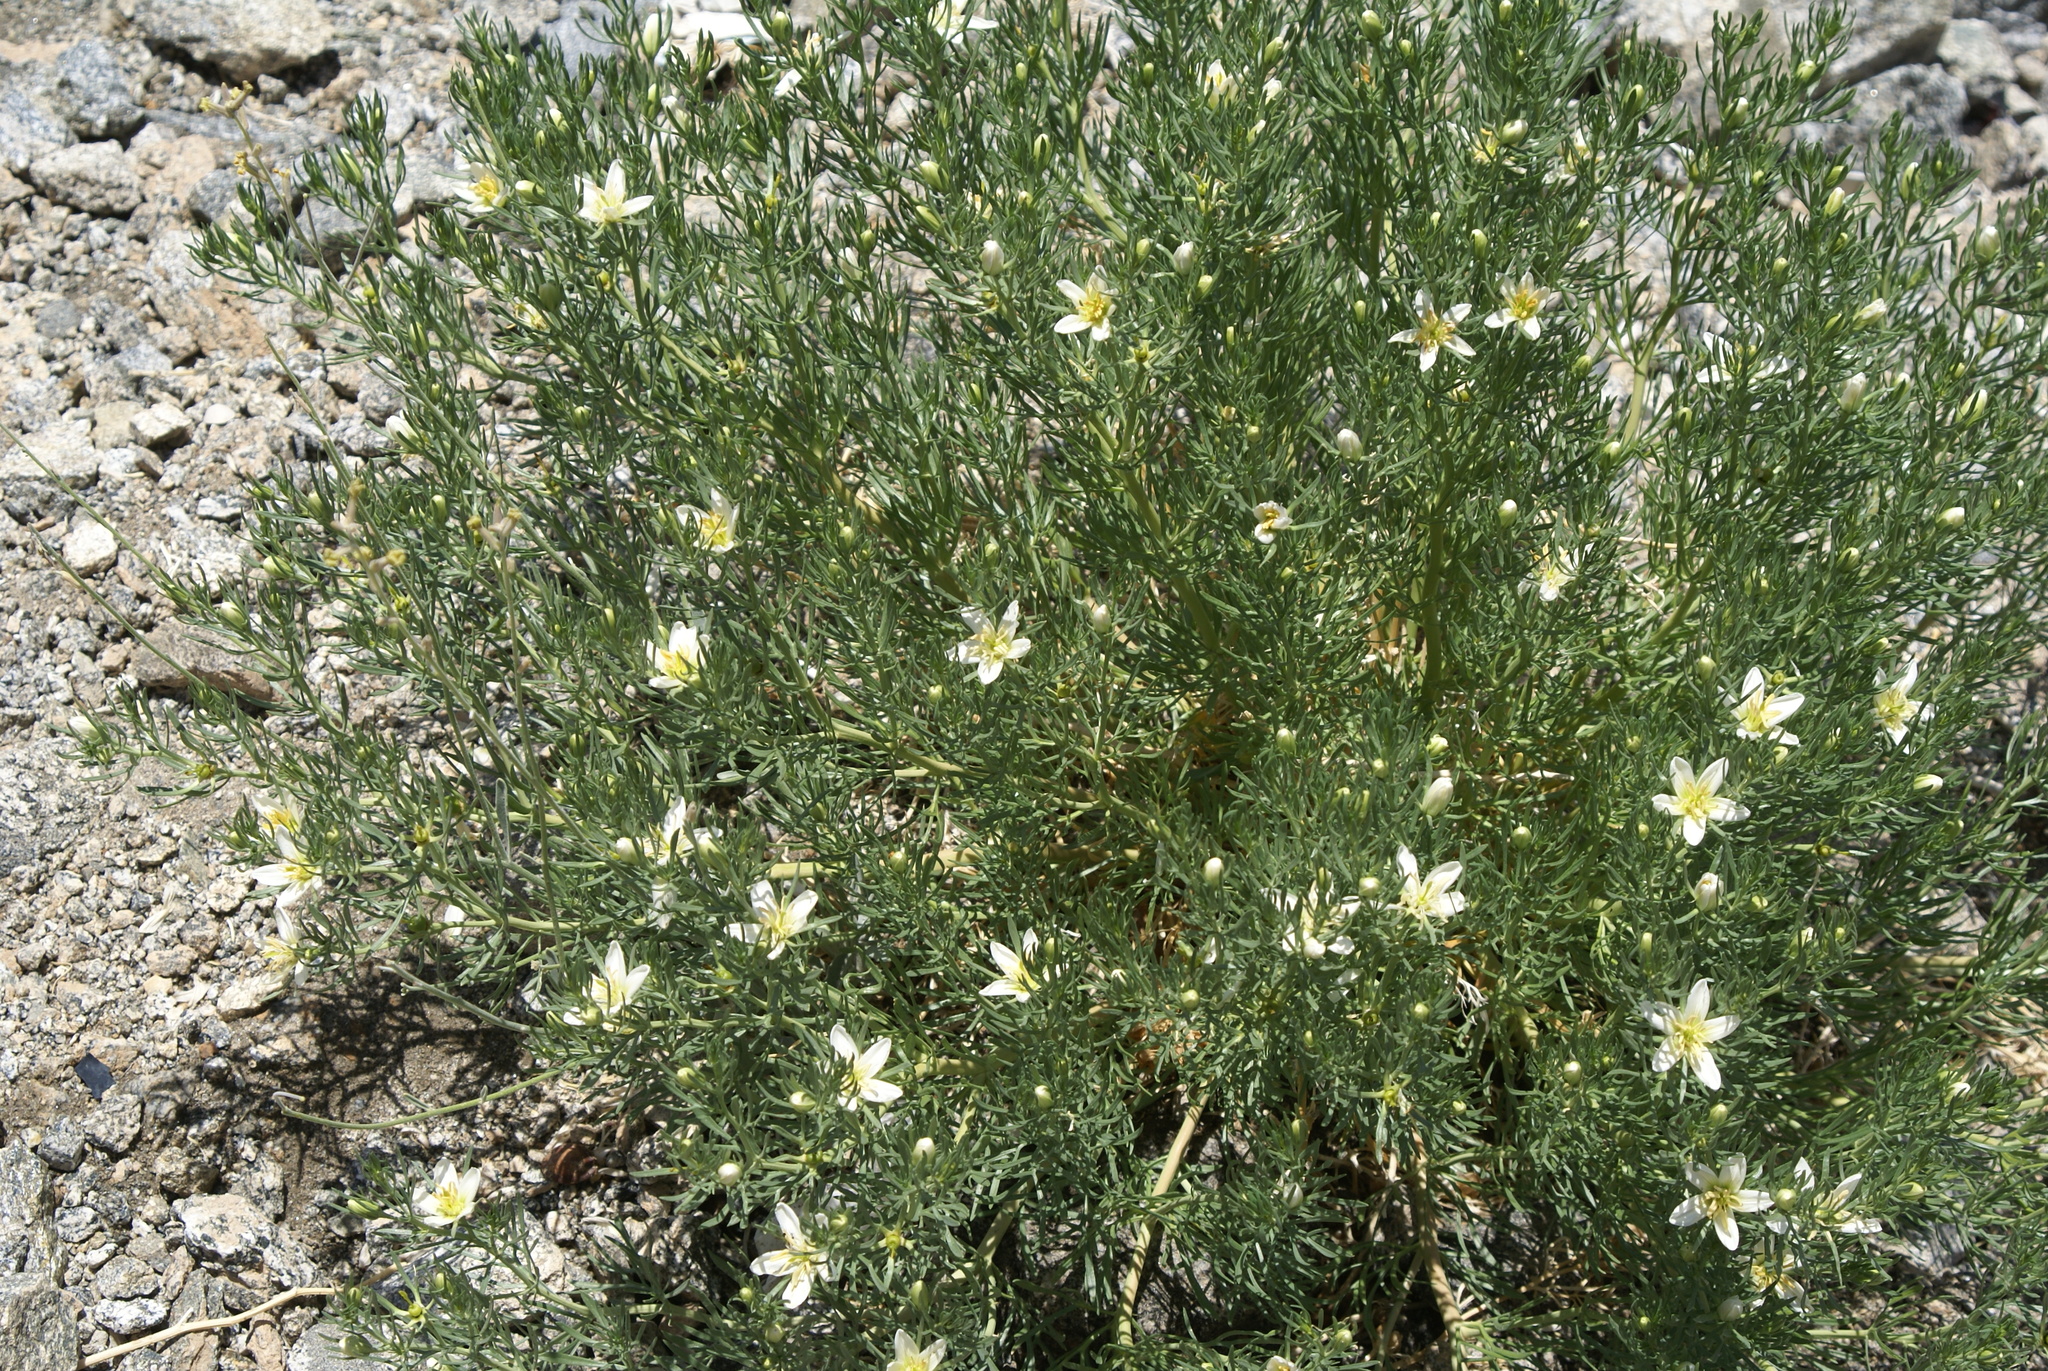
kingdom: Plantae
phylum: Tracheophyta
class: Magnoliopsida
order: Sapindales
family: Tetradiclidaceae
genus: Peganum
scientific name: Peganum harmala
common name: Harmal peganum
